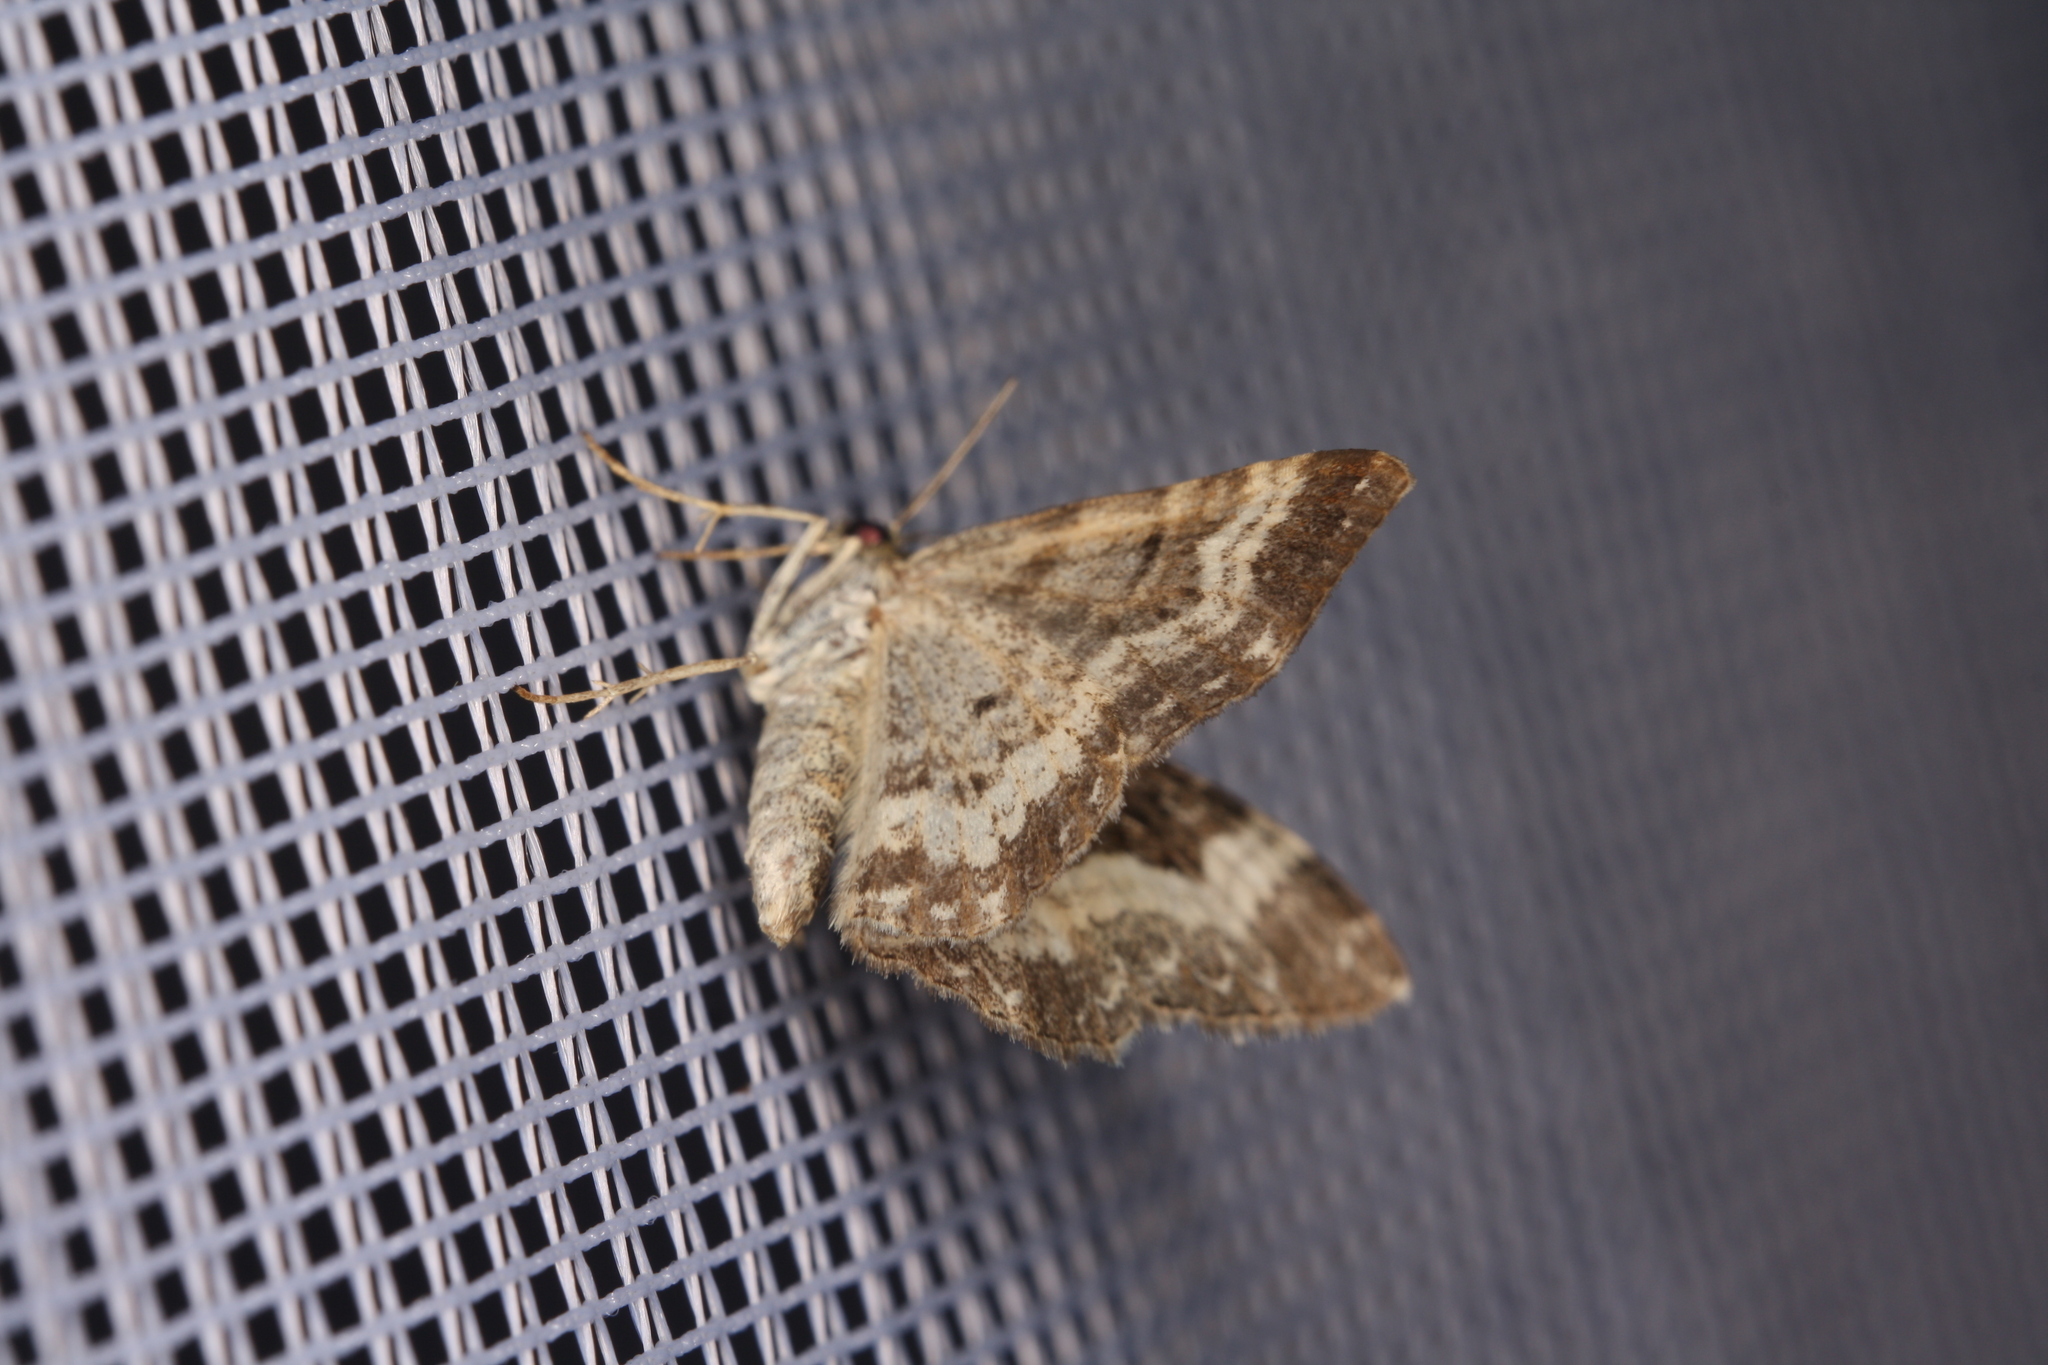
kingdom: Animalia
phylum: Arthropoda
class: Insecta
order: Lepidoptera
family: Geometridae
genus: Epirrhoe
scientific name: Epirrhoe alternata
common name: Common carpet
